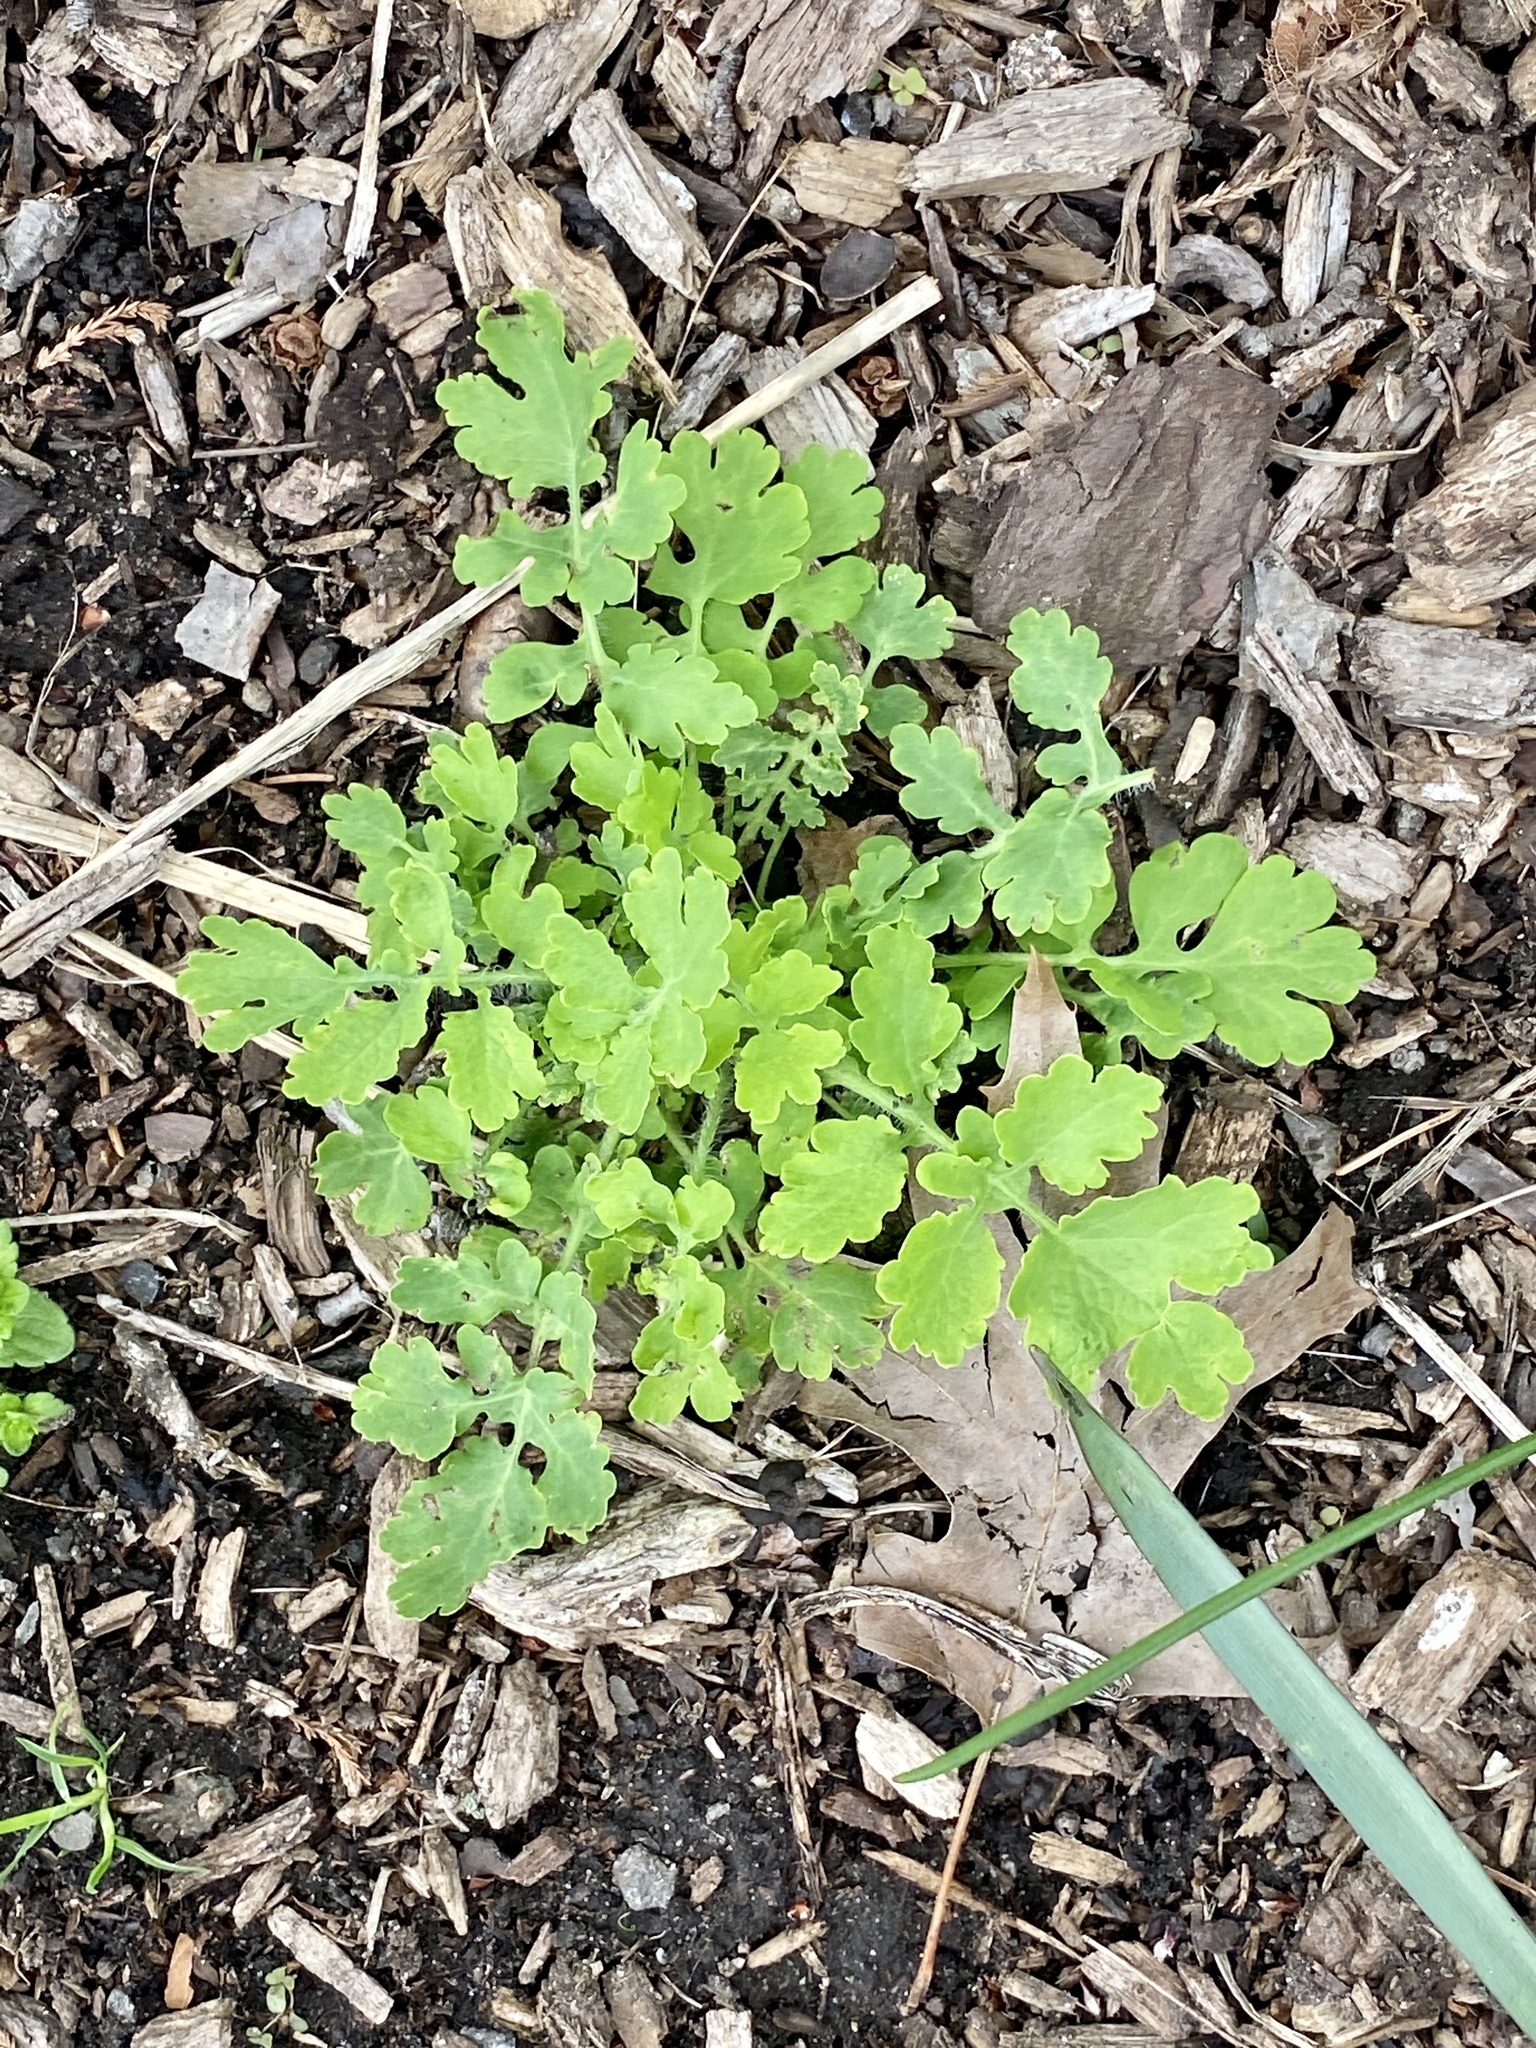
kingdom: Plantae
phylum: Tracheophyta
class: Magnoliopsida
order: Ranunculales
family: Papaveraceae
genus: Chelidonium
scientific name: Chelidonium majus
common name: Greater celandine
